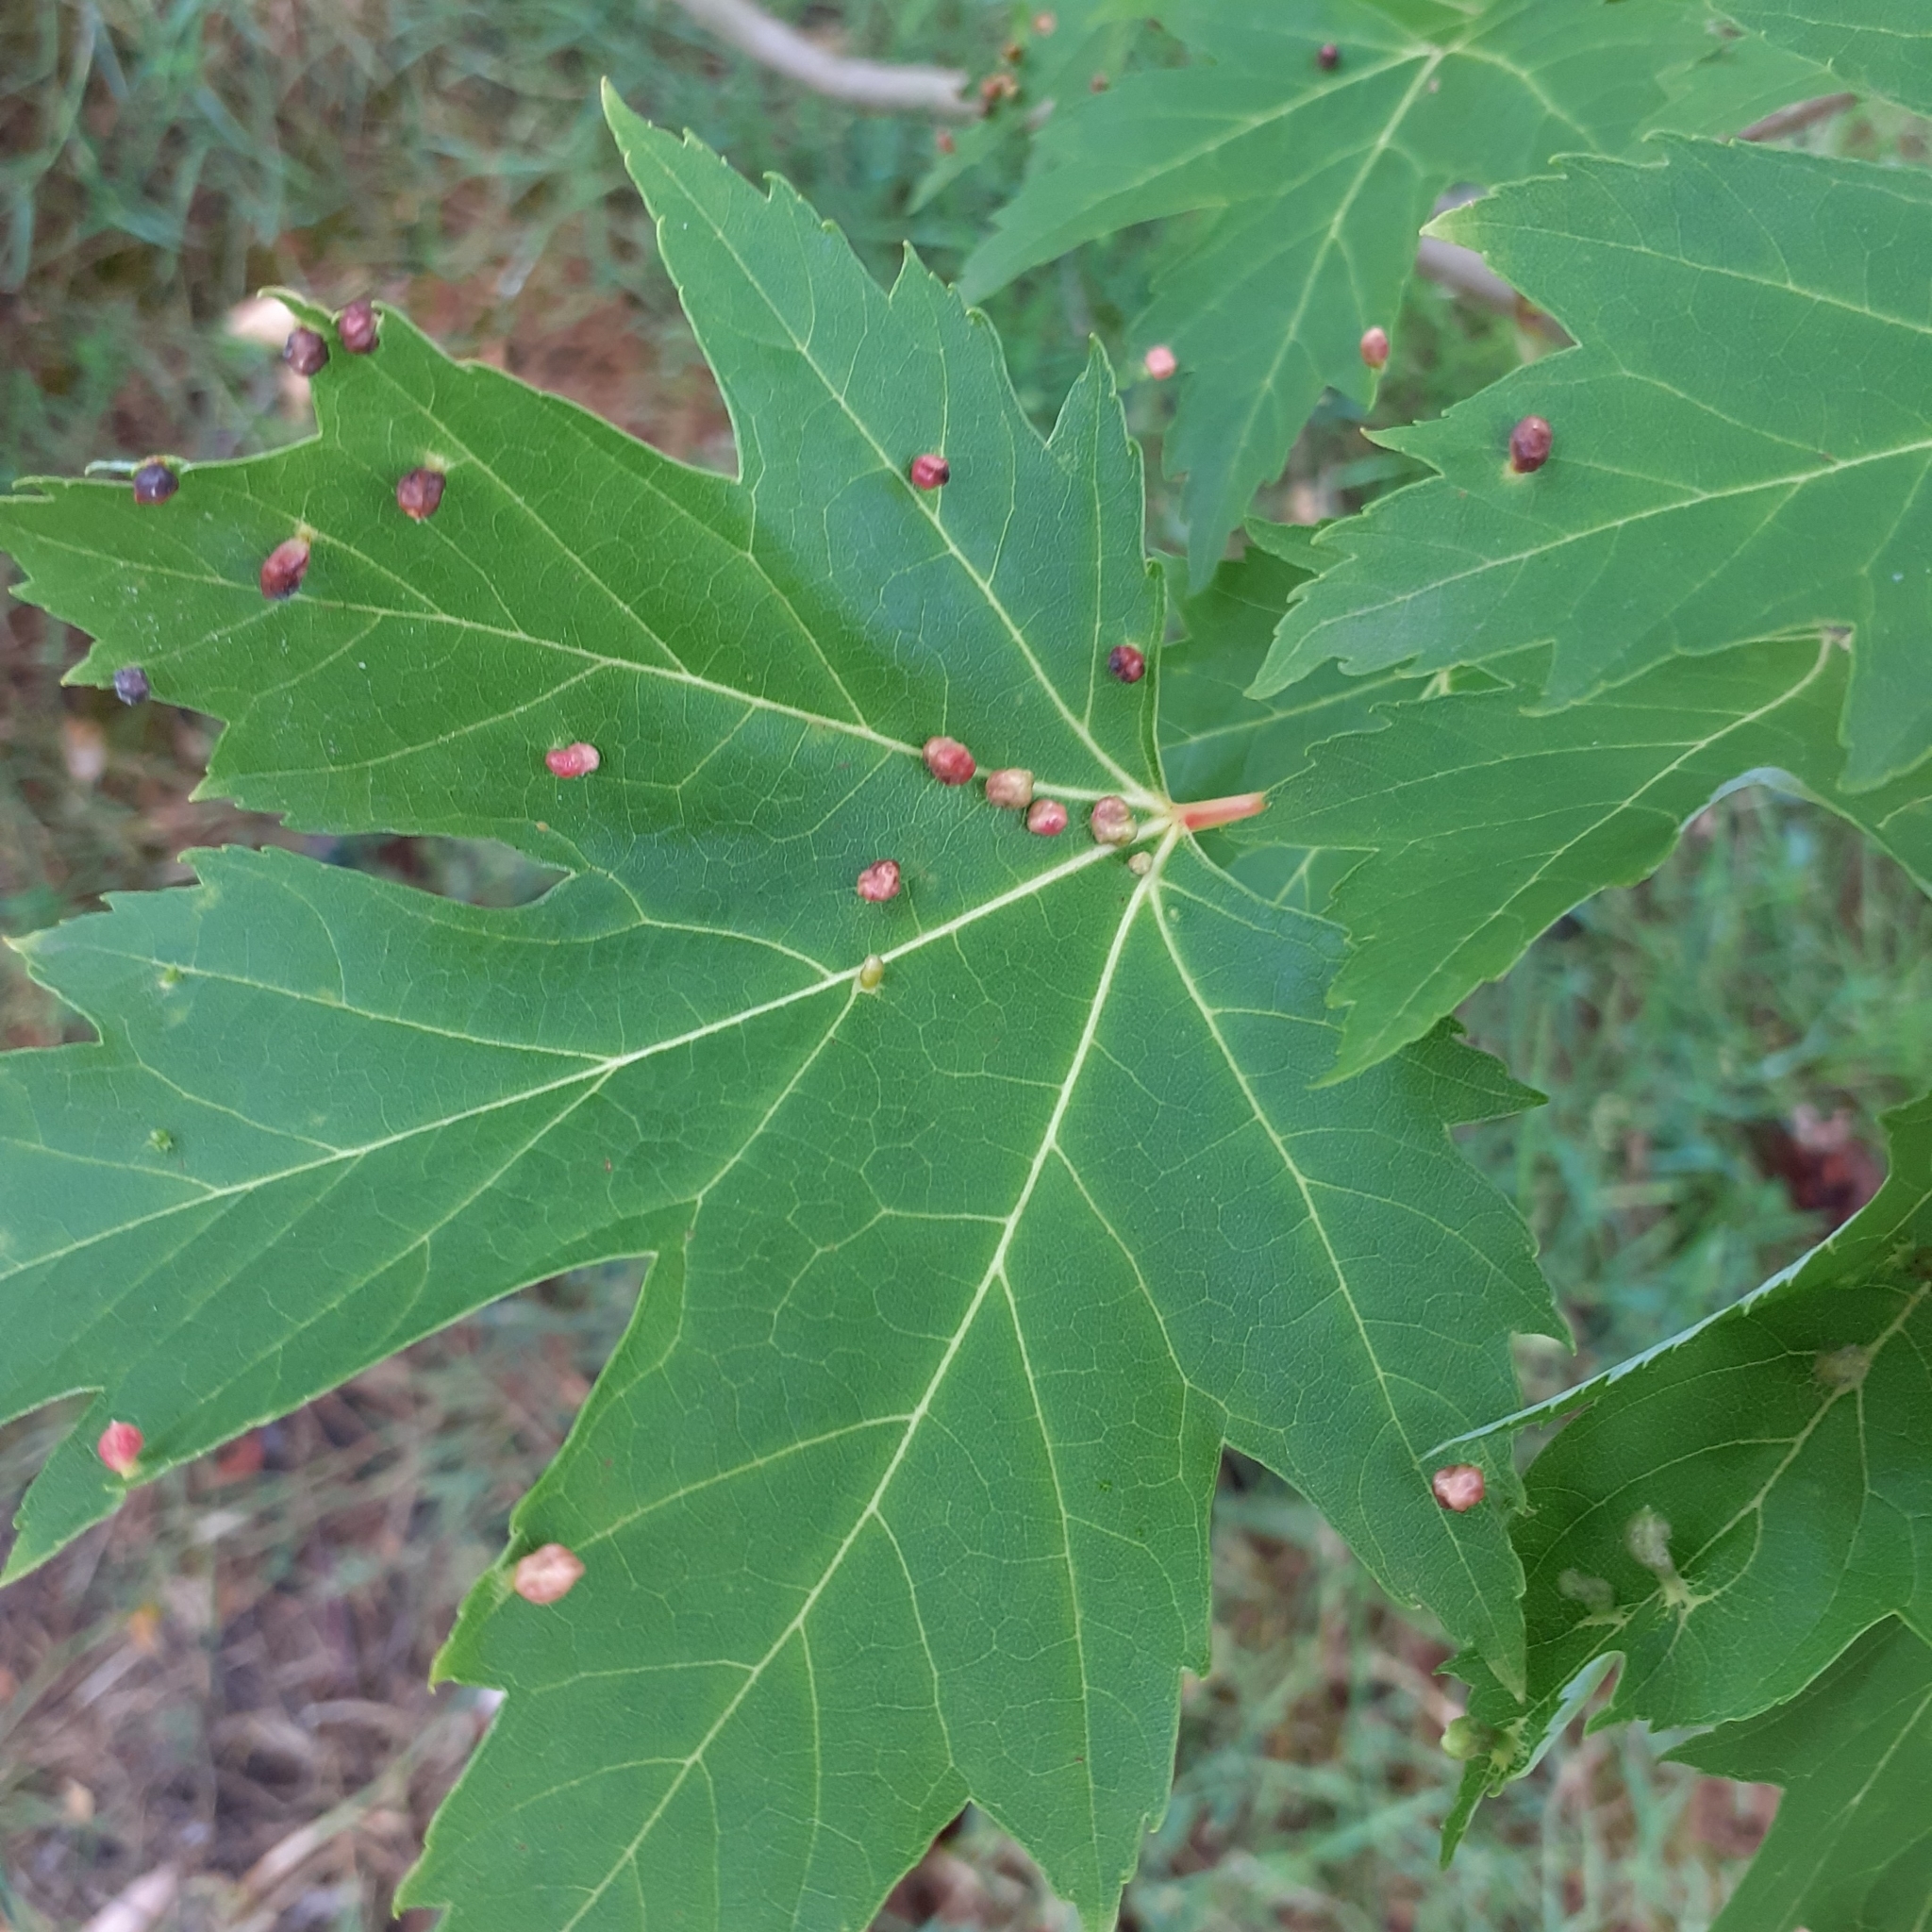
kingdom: Animalia
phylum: Arthropoda
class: Arachnida
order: Trombidiformes
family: Eriophyidae
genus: Vasates
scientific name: Vasates quadripedes
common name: Maple bladder gall mite
